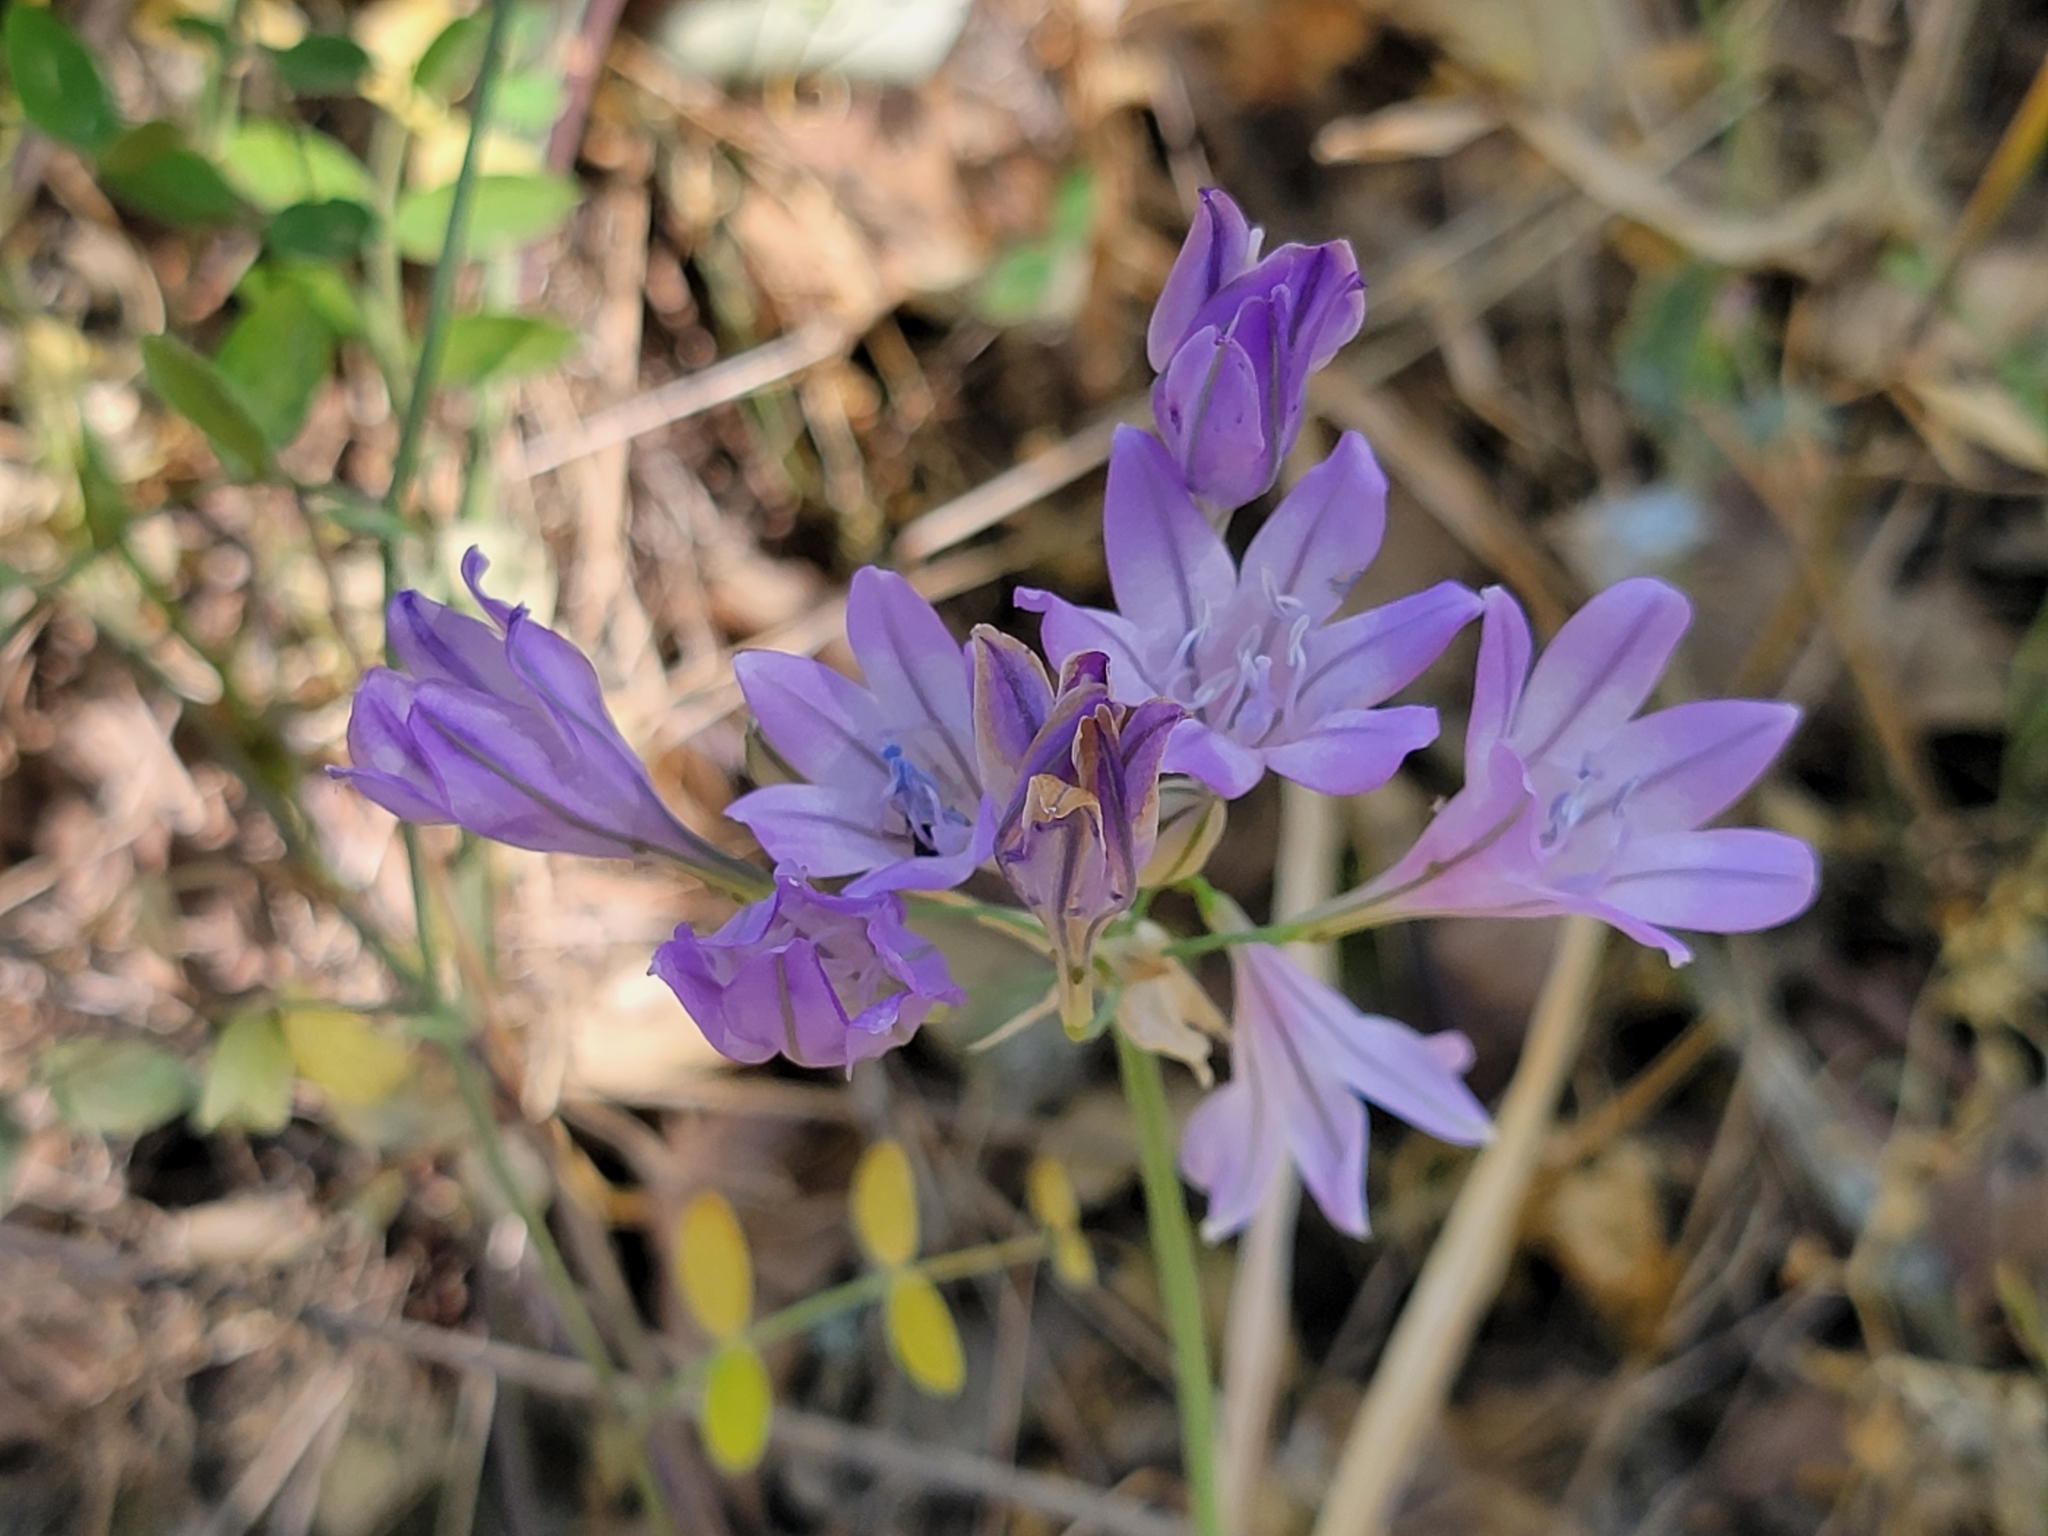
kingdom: Plantae
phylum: Tracheophyta
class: Liliopsida
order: Asparagales
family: Asparagaceae
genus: Triteleia
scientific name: Triteleia laxa
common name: Triplet-lily
